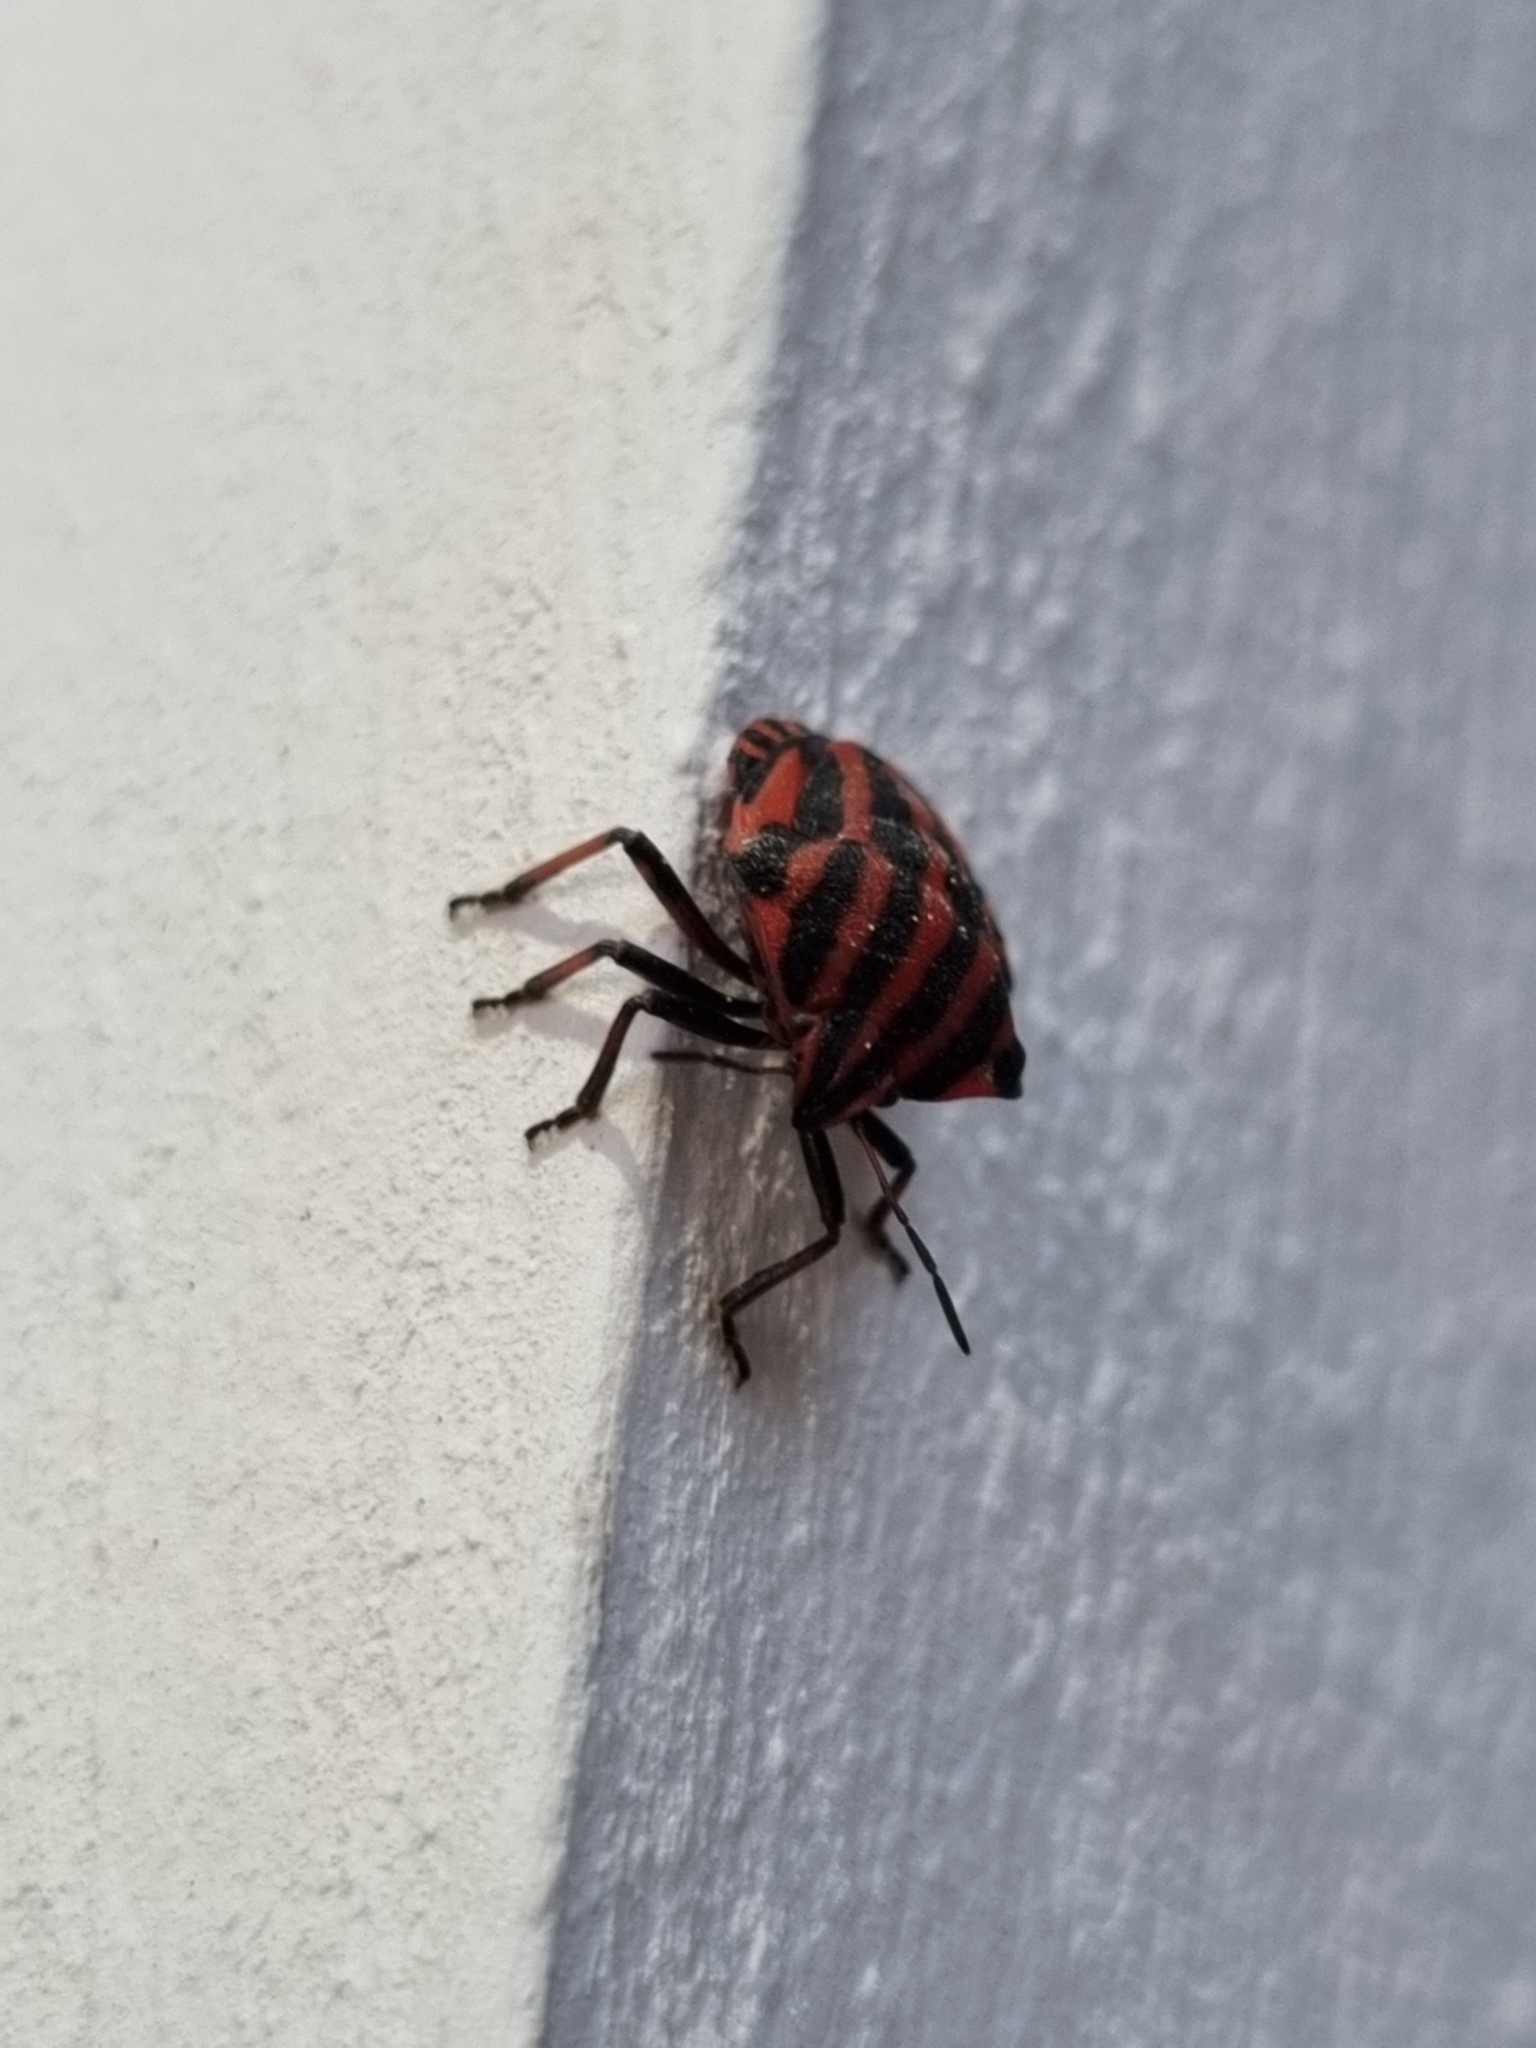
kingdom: Animalia
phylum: Arthropoda
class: Insecta
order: Hemiptera
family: Pentatomidae
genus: Graphosoma
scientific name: Graphosoma italicum
